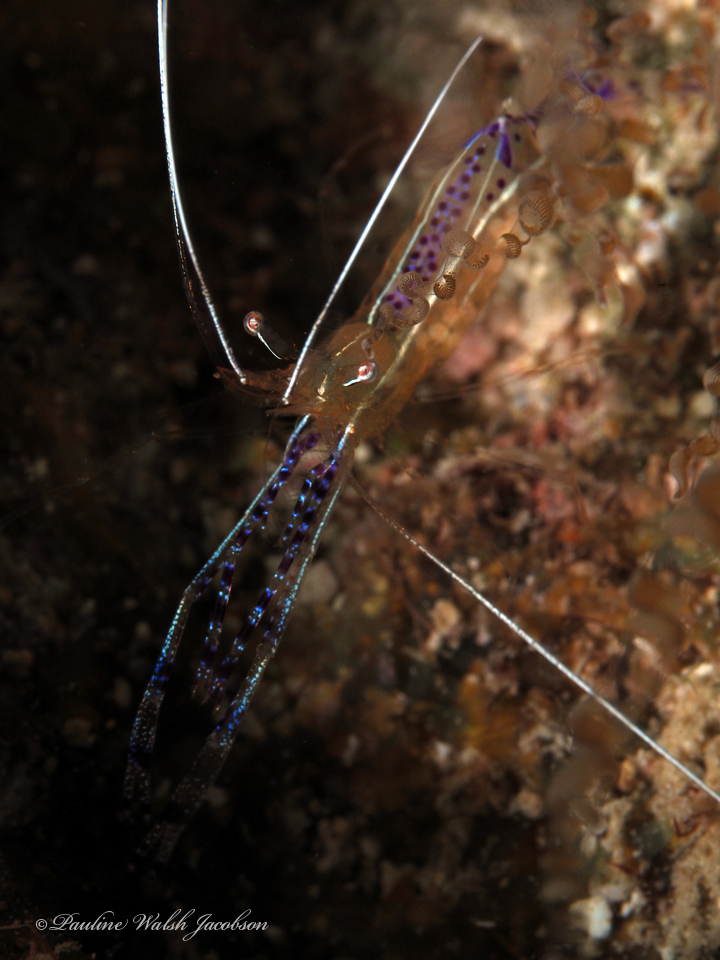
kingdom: Animalia
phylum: Arthropoda
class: Malacostraca
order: Decapoda
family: Palaemonidae
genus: Ancylomenes
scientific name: Ancylomenes pedersoni
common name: Pederson's cleaning shrimp
